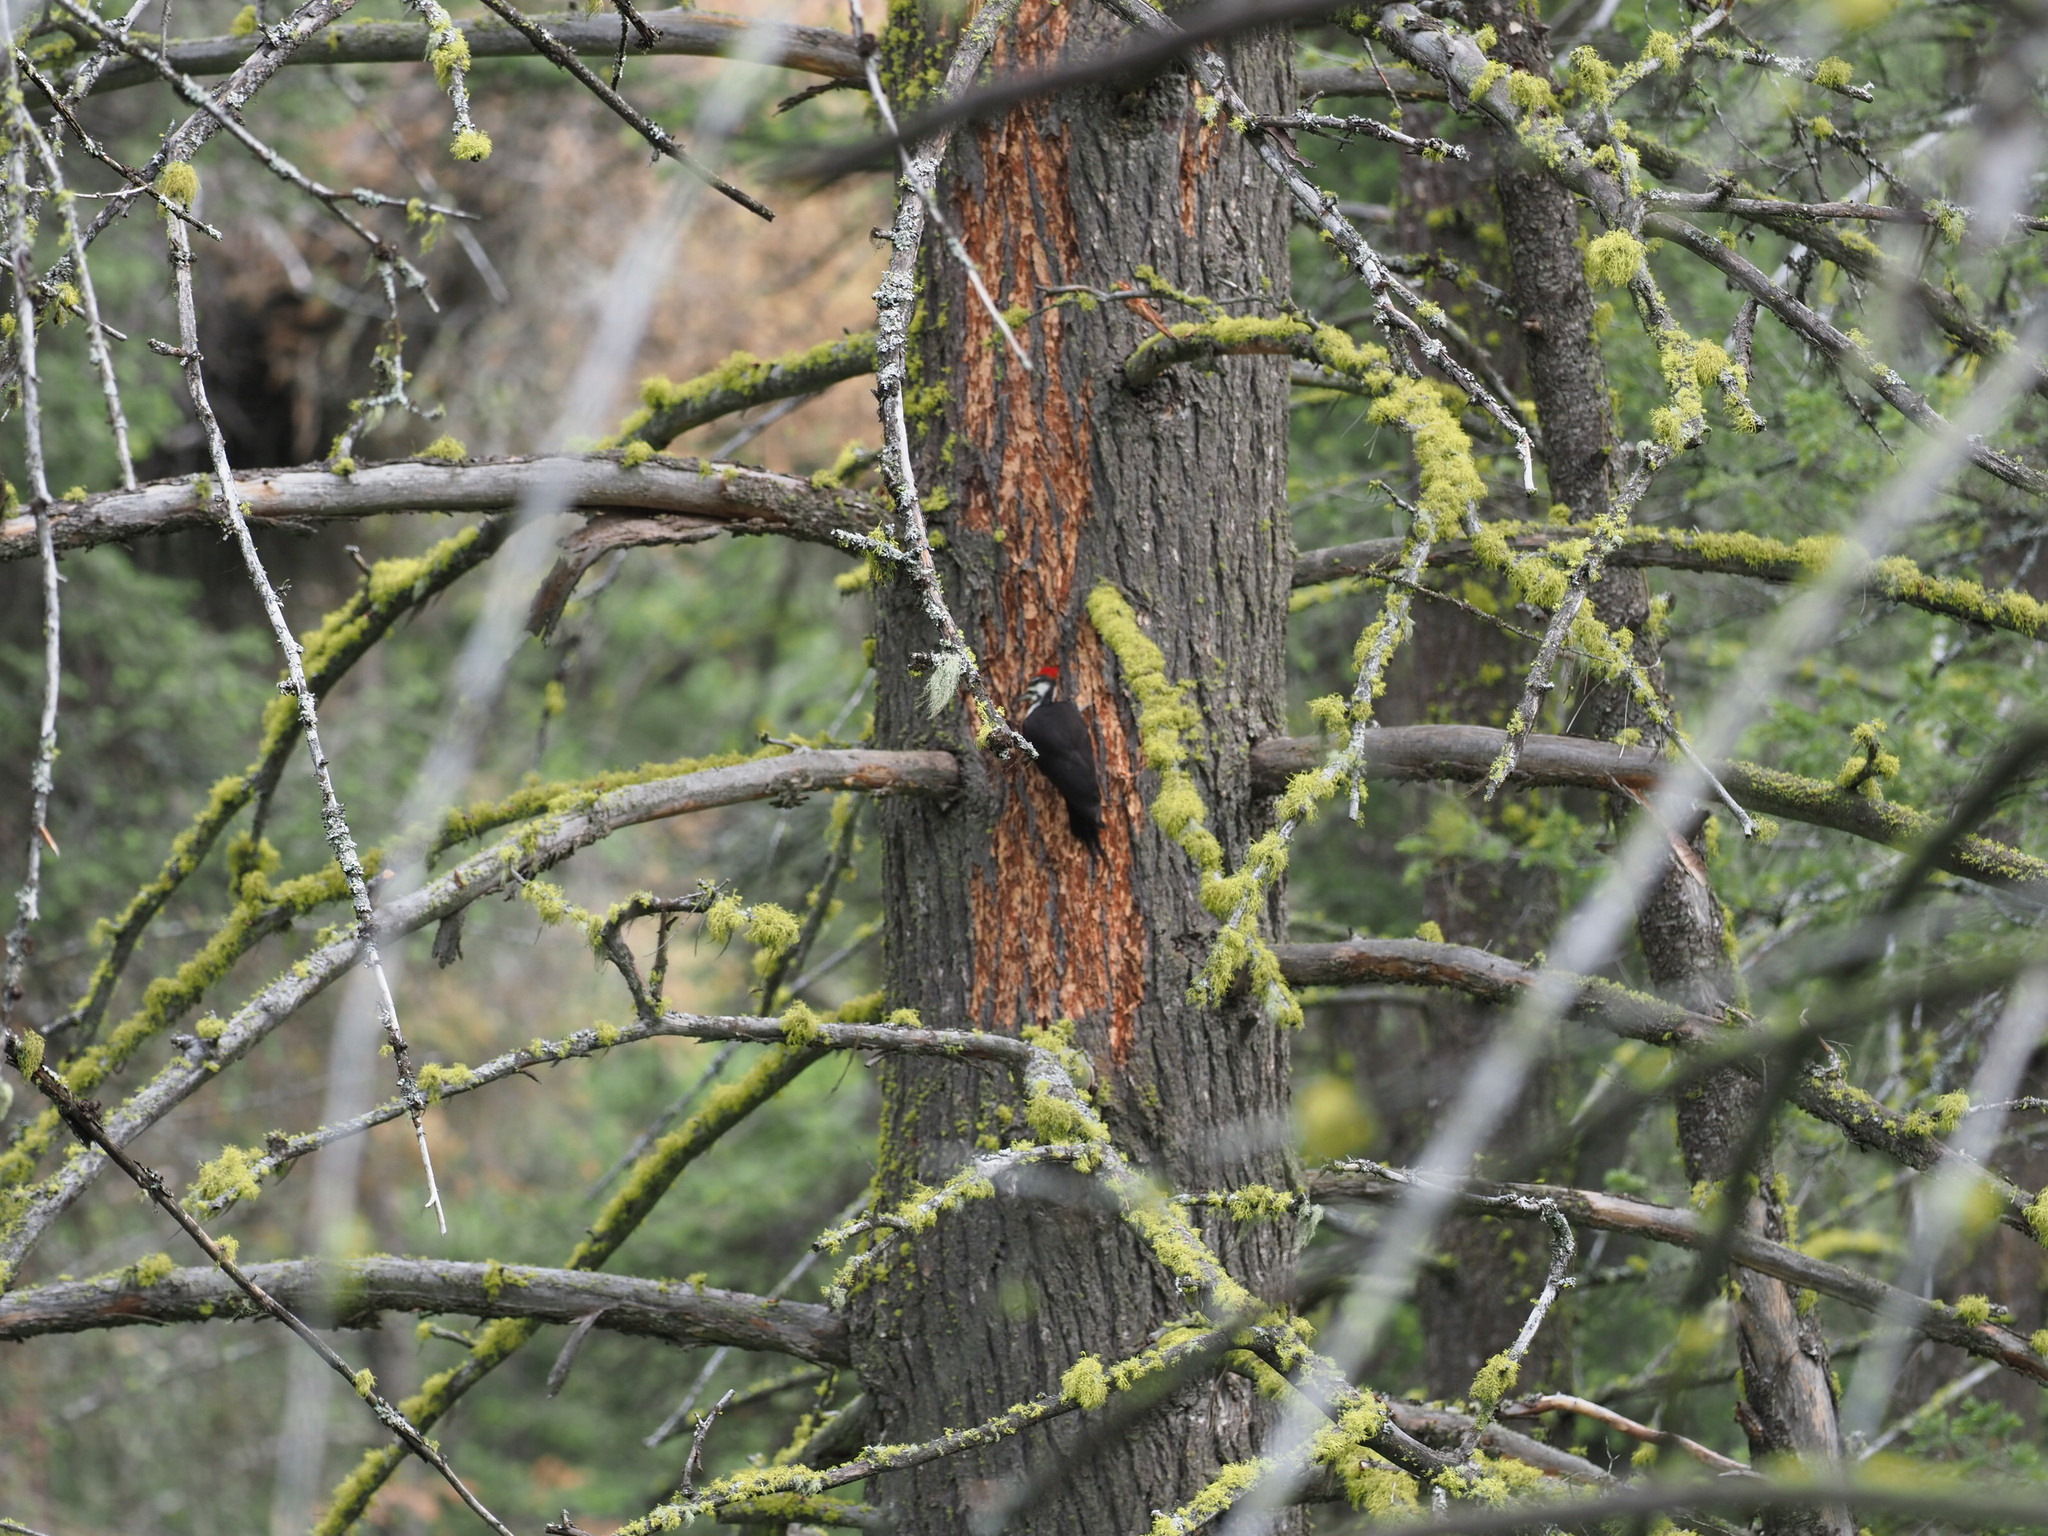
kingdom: Animalia
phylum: Chordata
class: Aves
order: Piciformes
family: Picidae
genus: Dryocopus
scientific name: Dryocopus pileatus
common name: Pileated woodpecker
